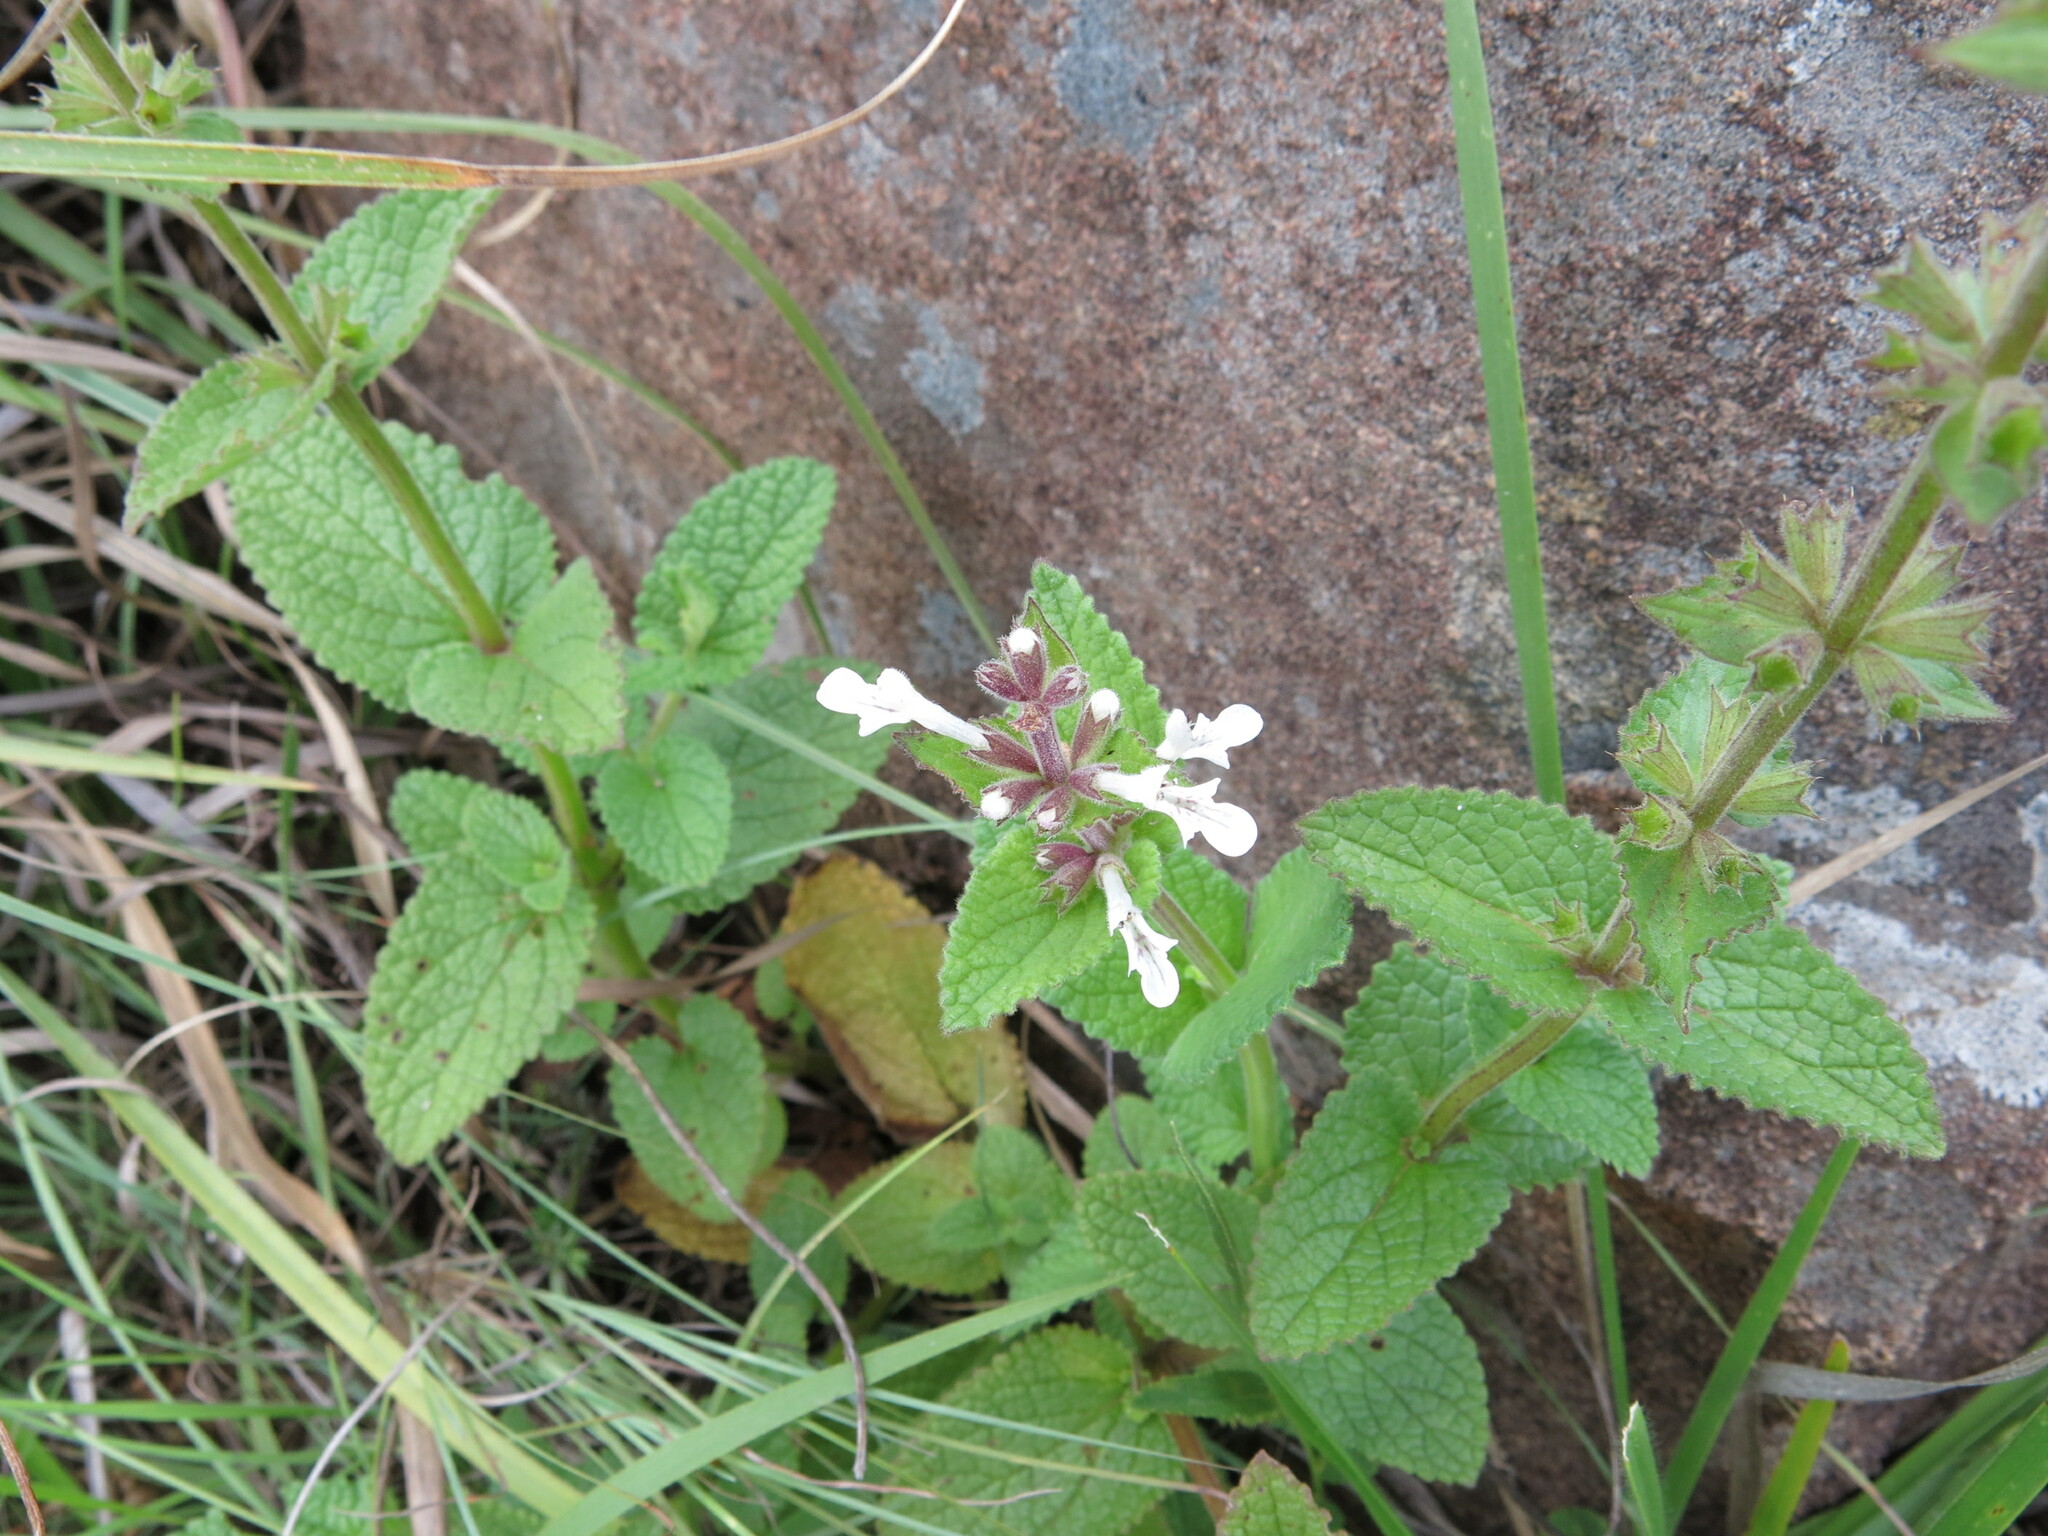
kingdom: Plantae
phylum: Tracheophyta
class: Magnoliopsida
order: Lamiales
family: Lamiaceae
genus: Stachys
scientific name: Stachys aethiopica
